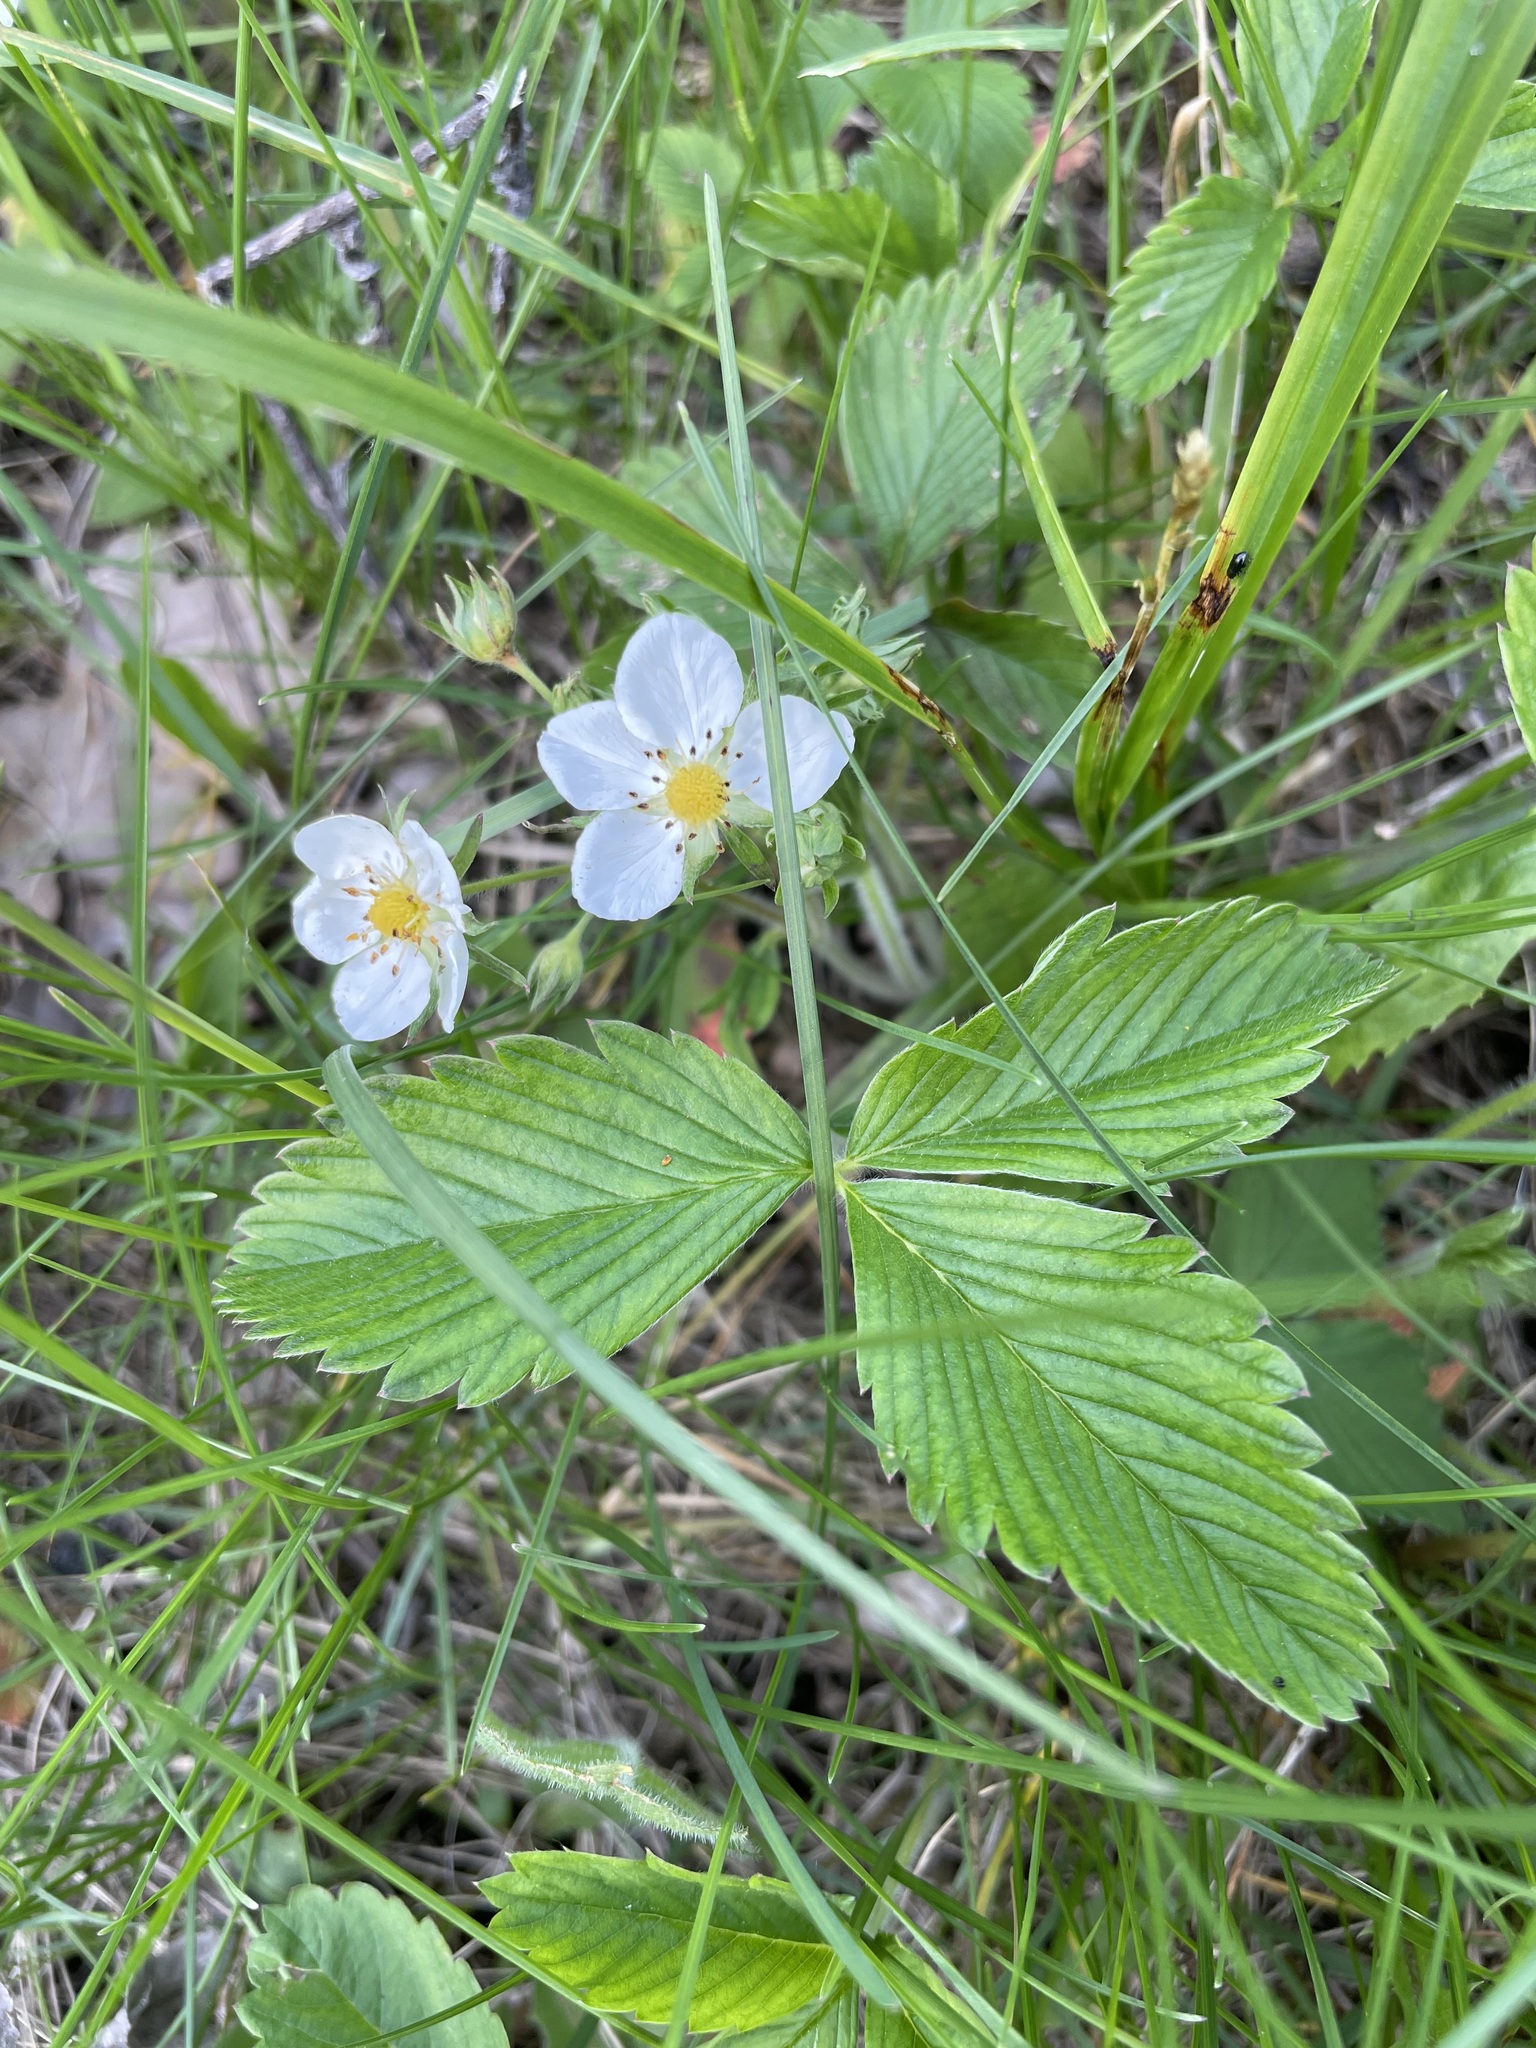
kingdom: Plantae
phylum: Tracheophyta
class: Magnoliopsida
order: Rosales
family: Rosaceae
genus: Fragaria
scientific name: Fragaria viridis
